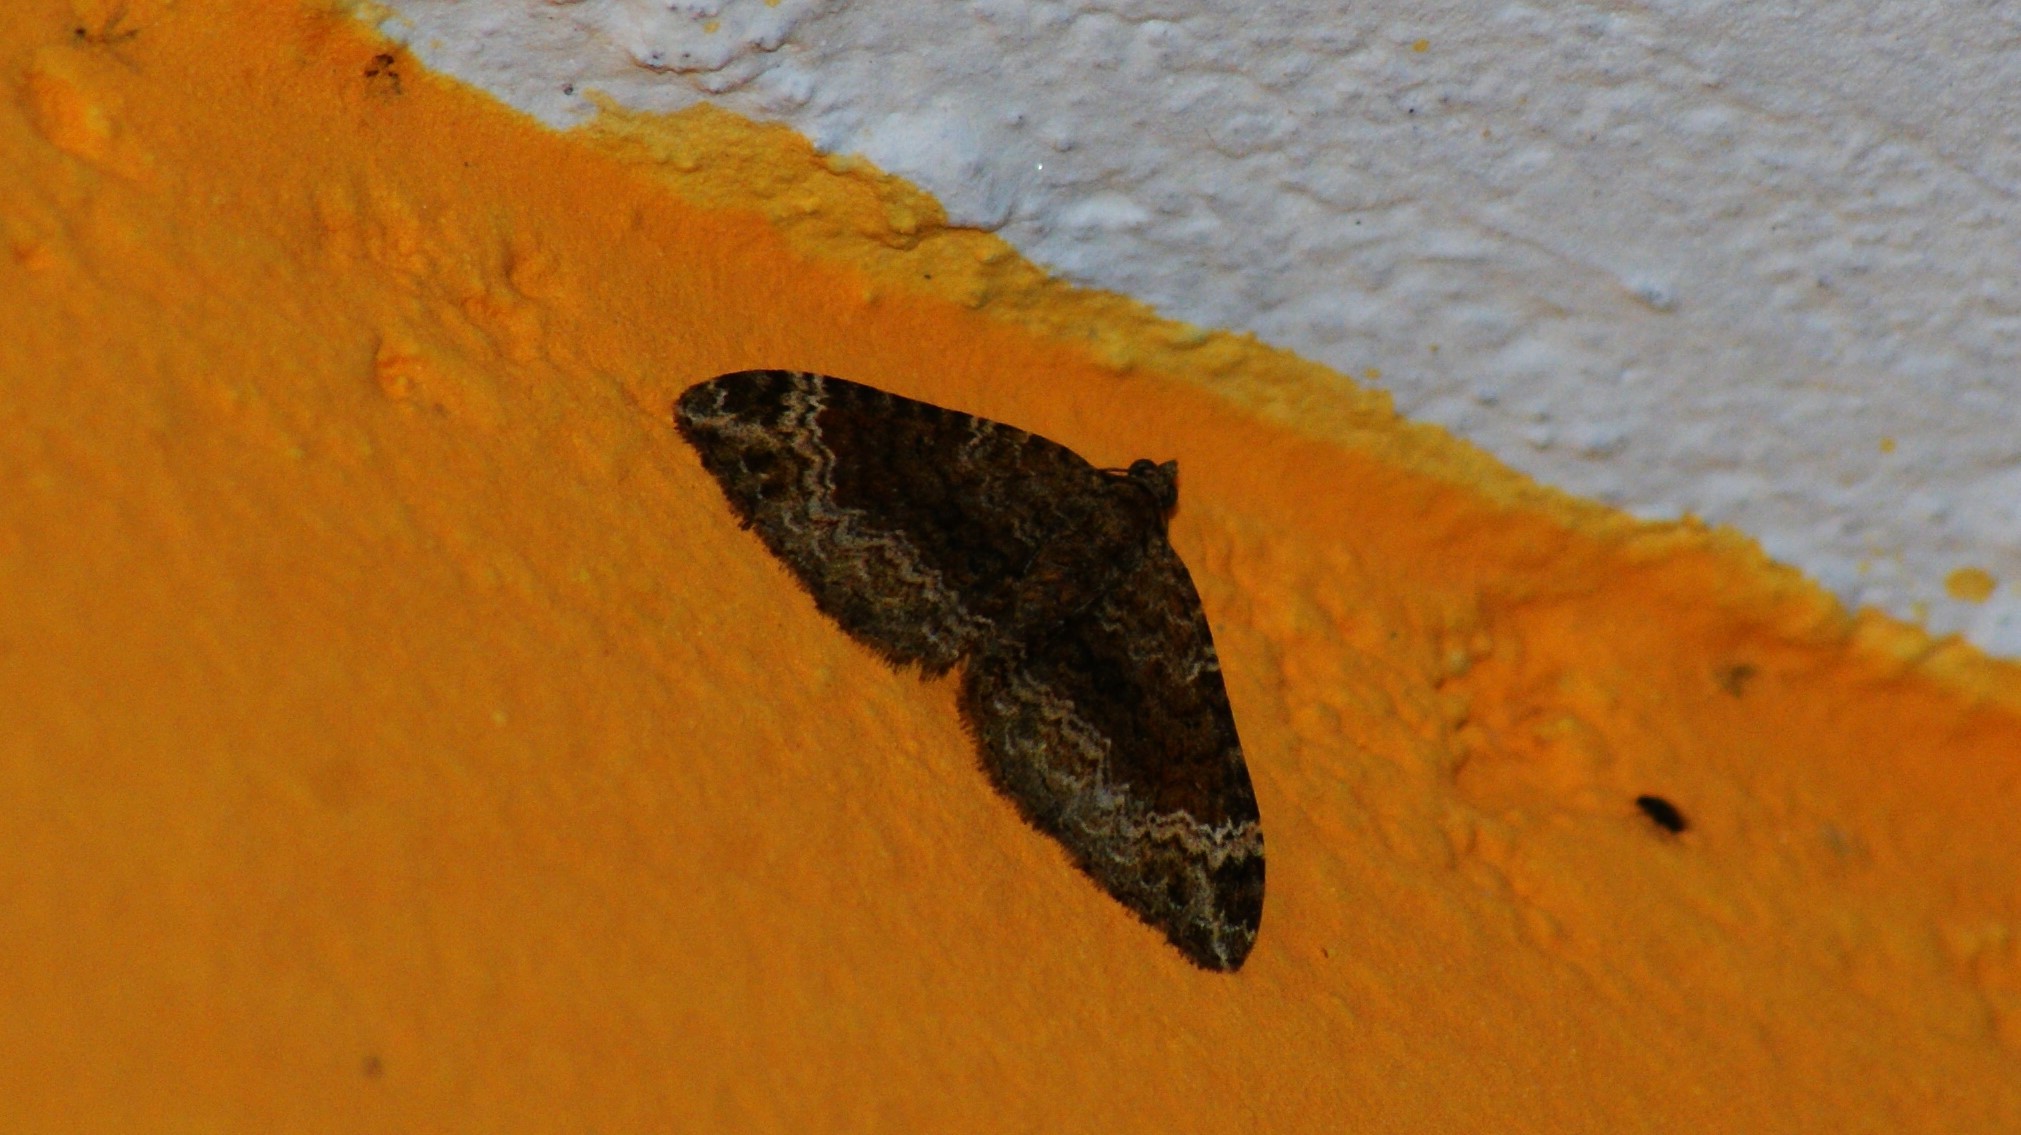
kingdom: Animalia
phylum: Arthropoda
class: Insecta
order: Lepidoptera
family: Geometridae
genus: Xanthorhoe
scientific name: Xanthorhoe saturata
